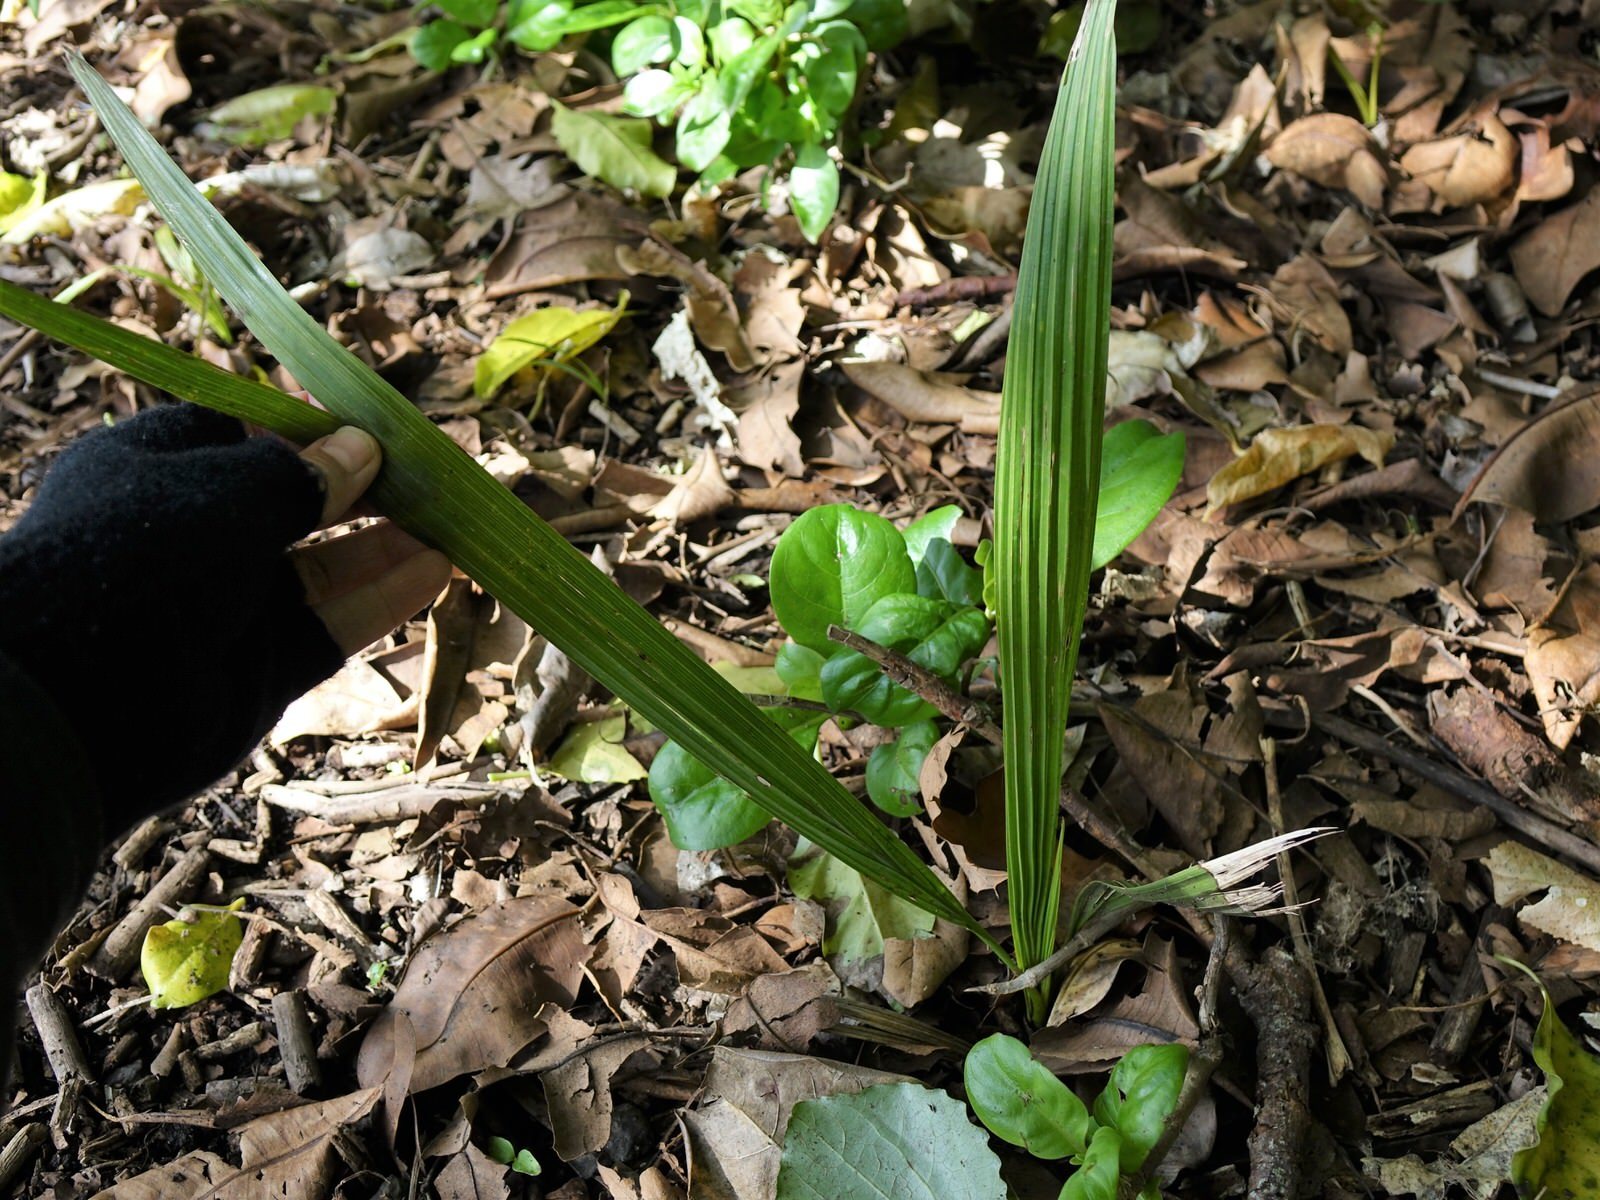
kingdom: Plantae
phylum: Tracheophyta
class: Liliopsida
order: Arecales
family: Arecaceae
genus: Phoenix
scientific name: Phoenix canariensis
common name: Canary island date palm
